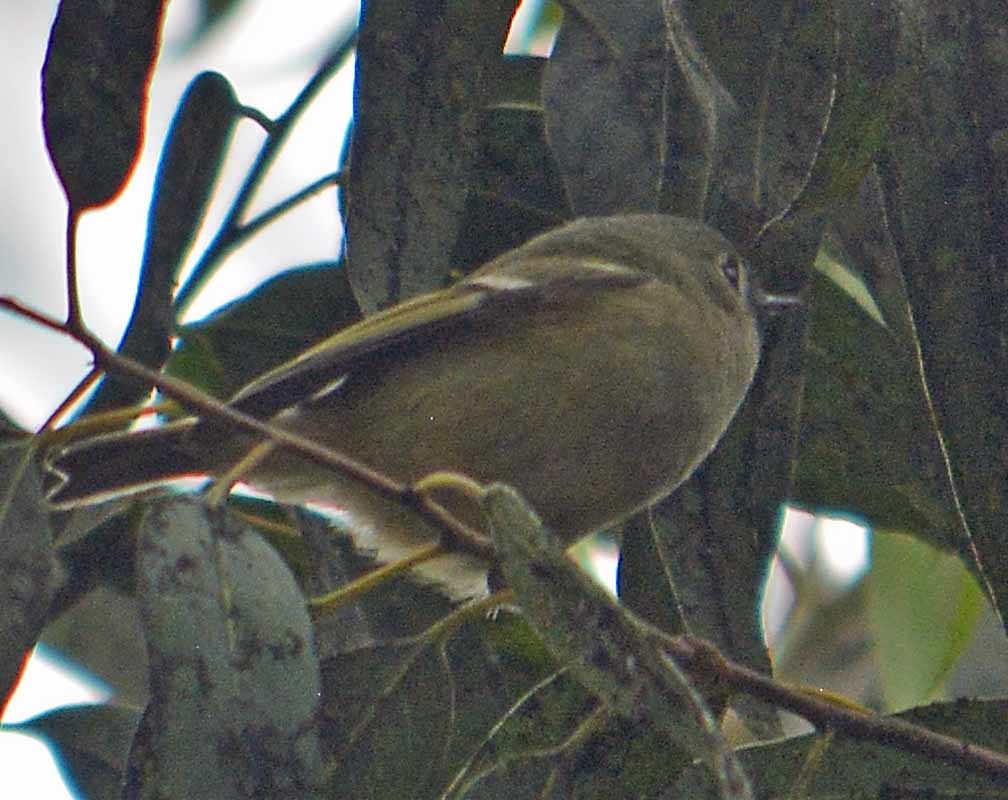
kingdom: Animalia
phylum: Chordata
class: Aves
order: Passeriformes
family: Regulidae
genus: Regulus
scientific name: Regulus calendula
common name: Ruby-crowned kinglet
